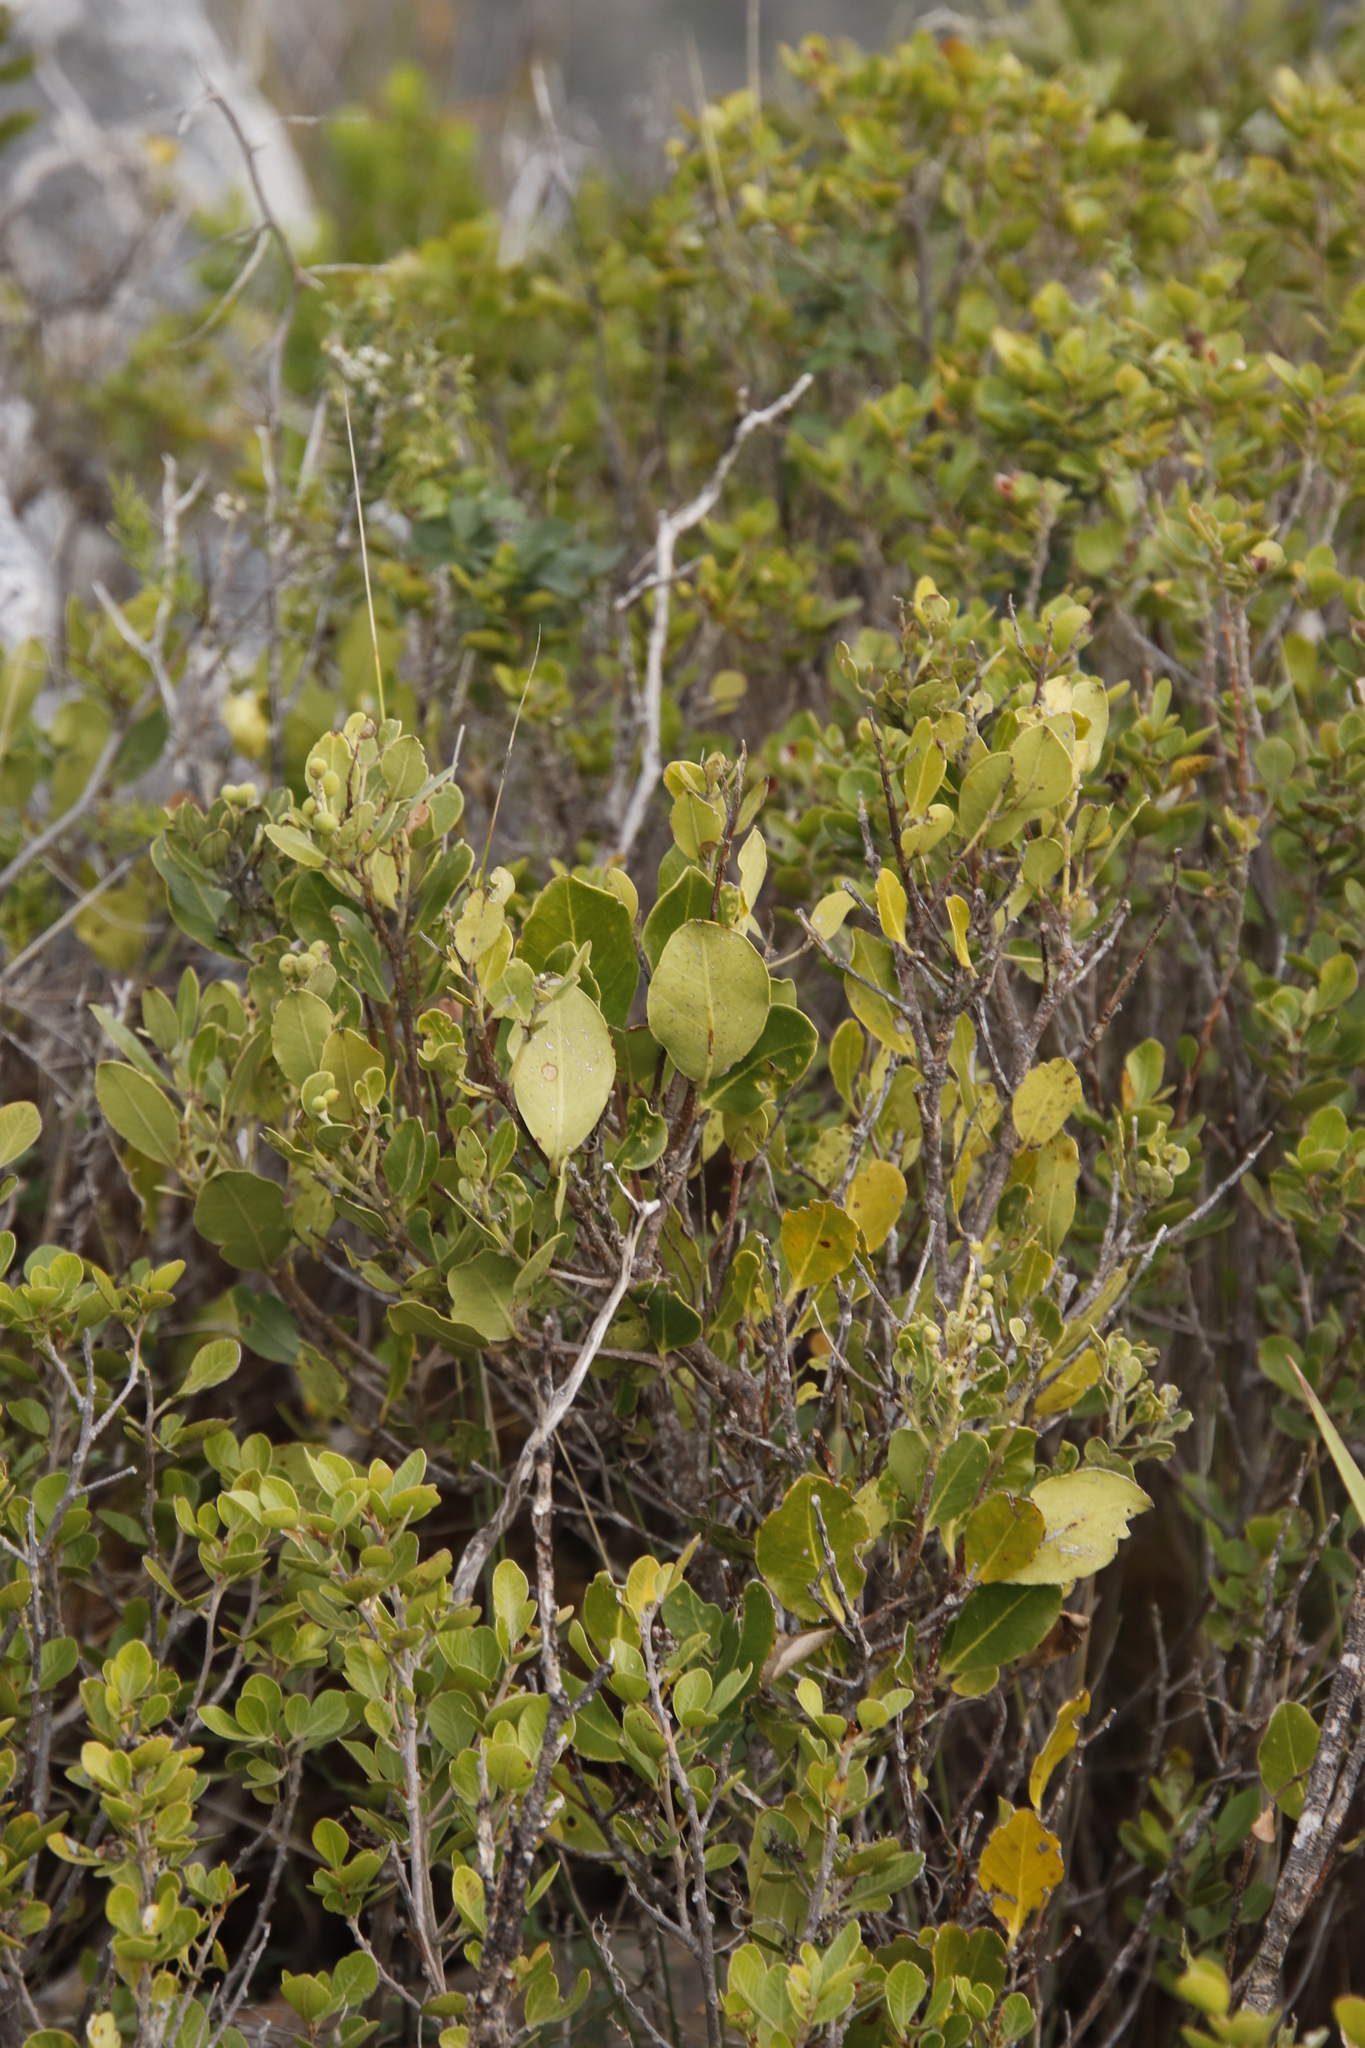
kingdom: Plantae
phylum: Tracheophyta
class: Magnoliopsida
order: Lamiales
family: Oleaceae
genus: Olea
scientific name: Olea capensis
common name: Black ironwood
